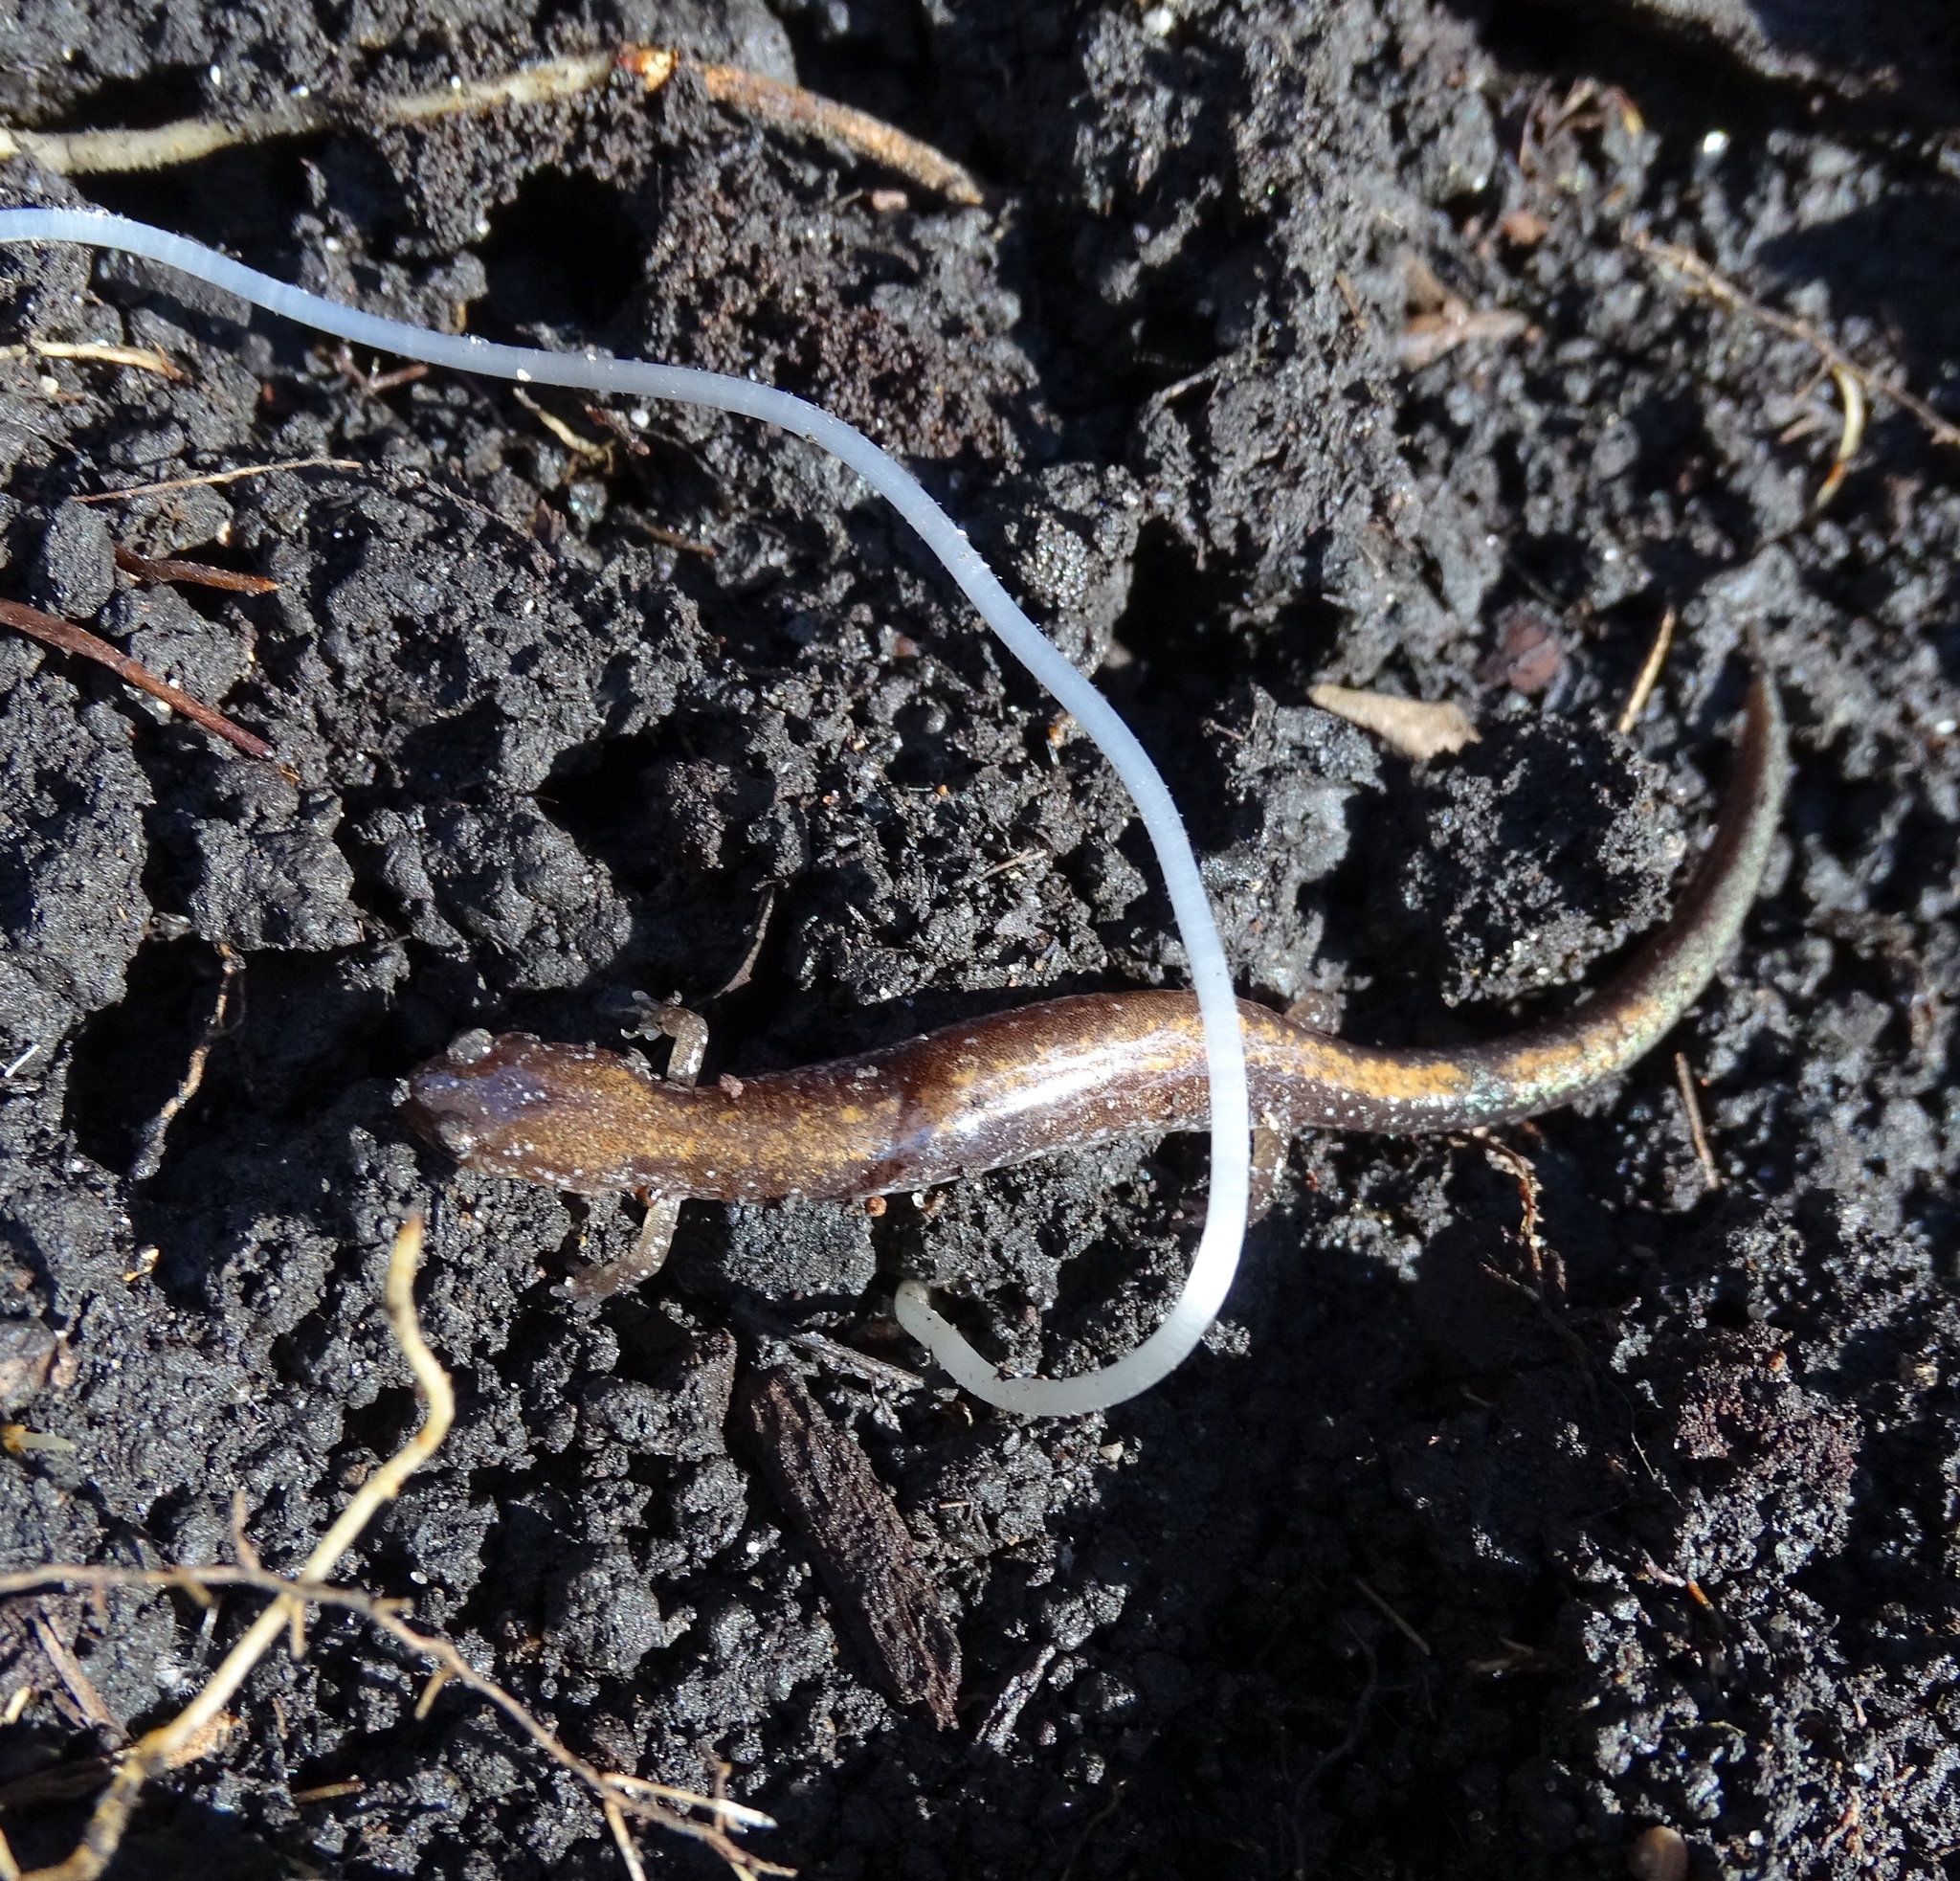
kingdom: Animalia
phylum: Chordata
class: Amphibia
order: Caudata
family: Plethodontidae
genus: Plethodon
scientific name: Plethodon cinereus
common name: Redback salamander
